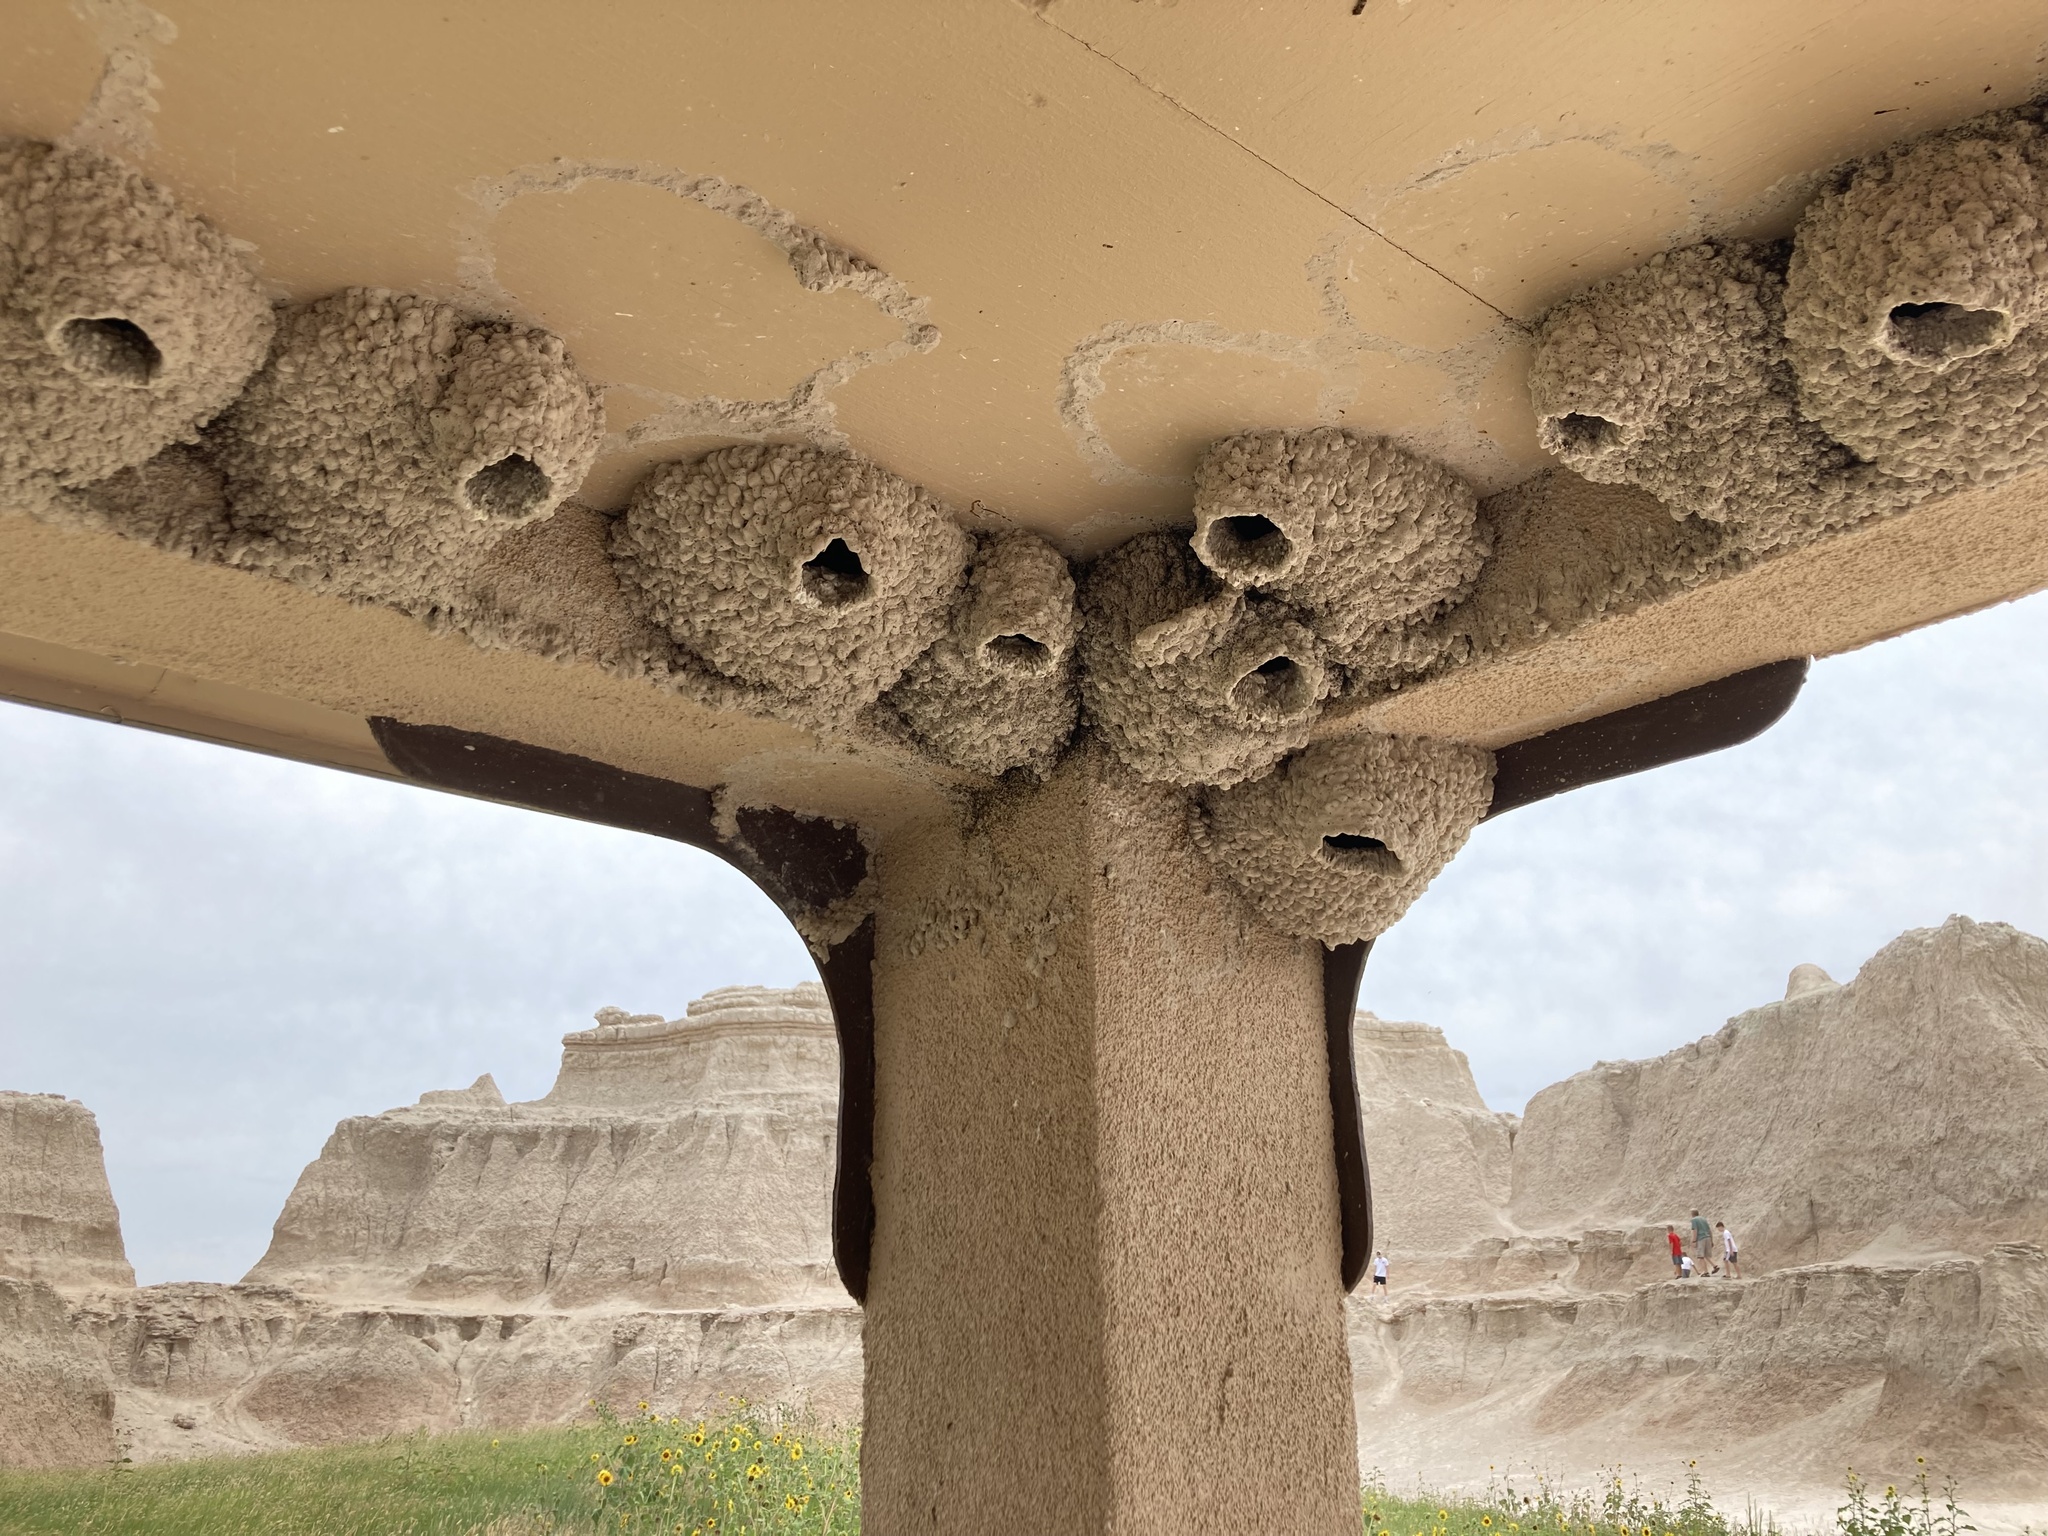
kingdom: Animalia
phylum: Chordata
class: Aves
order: Passeriformes
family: Hirundinidae
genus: Petrochelidon
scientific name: Petrochelidon pyrrhonota
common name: American cliff swallow
